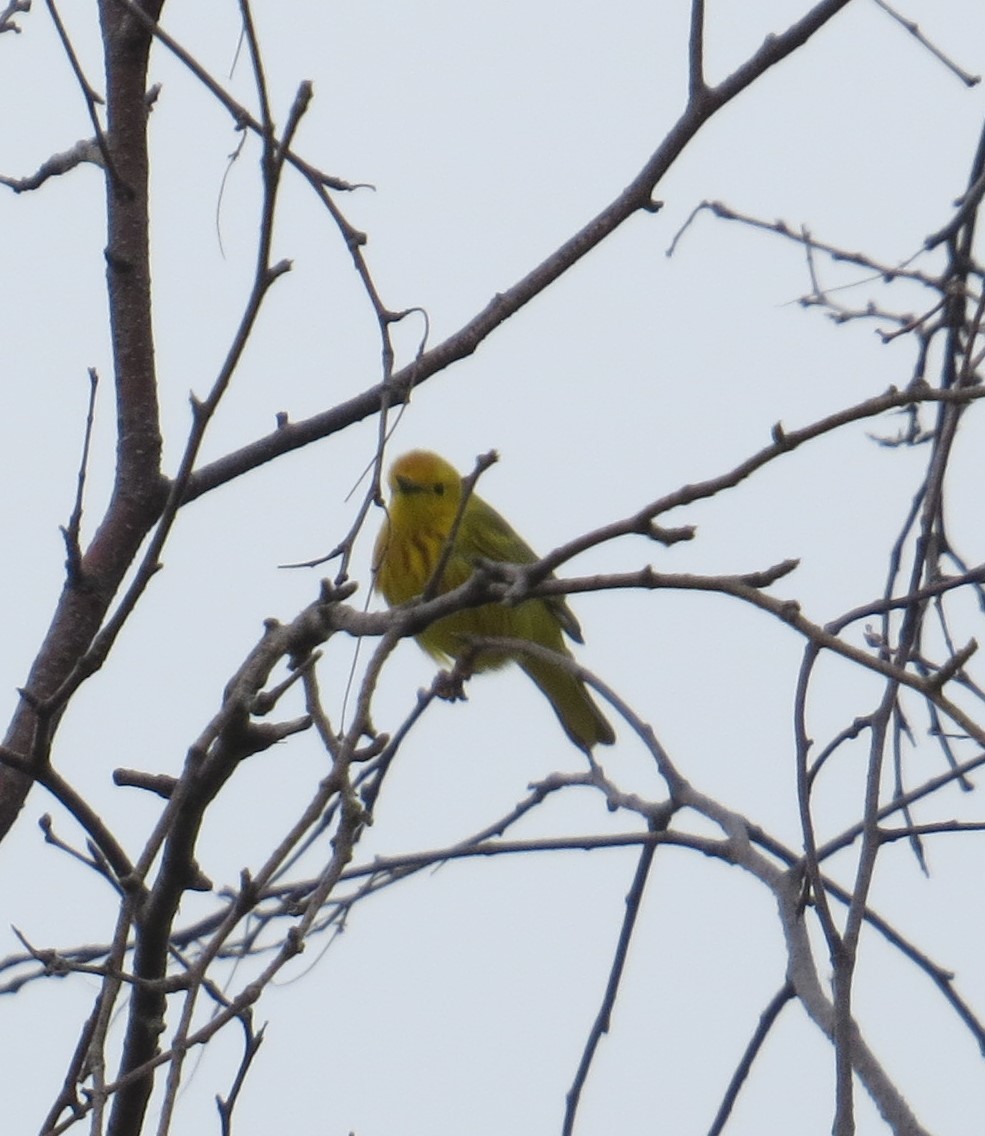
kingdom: Animalia
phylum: Chordata
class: Aves
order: Passeriformes
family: Parulidae
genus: Setophaga
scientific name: Setophaga petechia
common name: Yellow warbler
